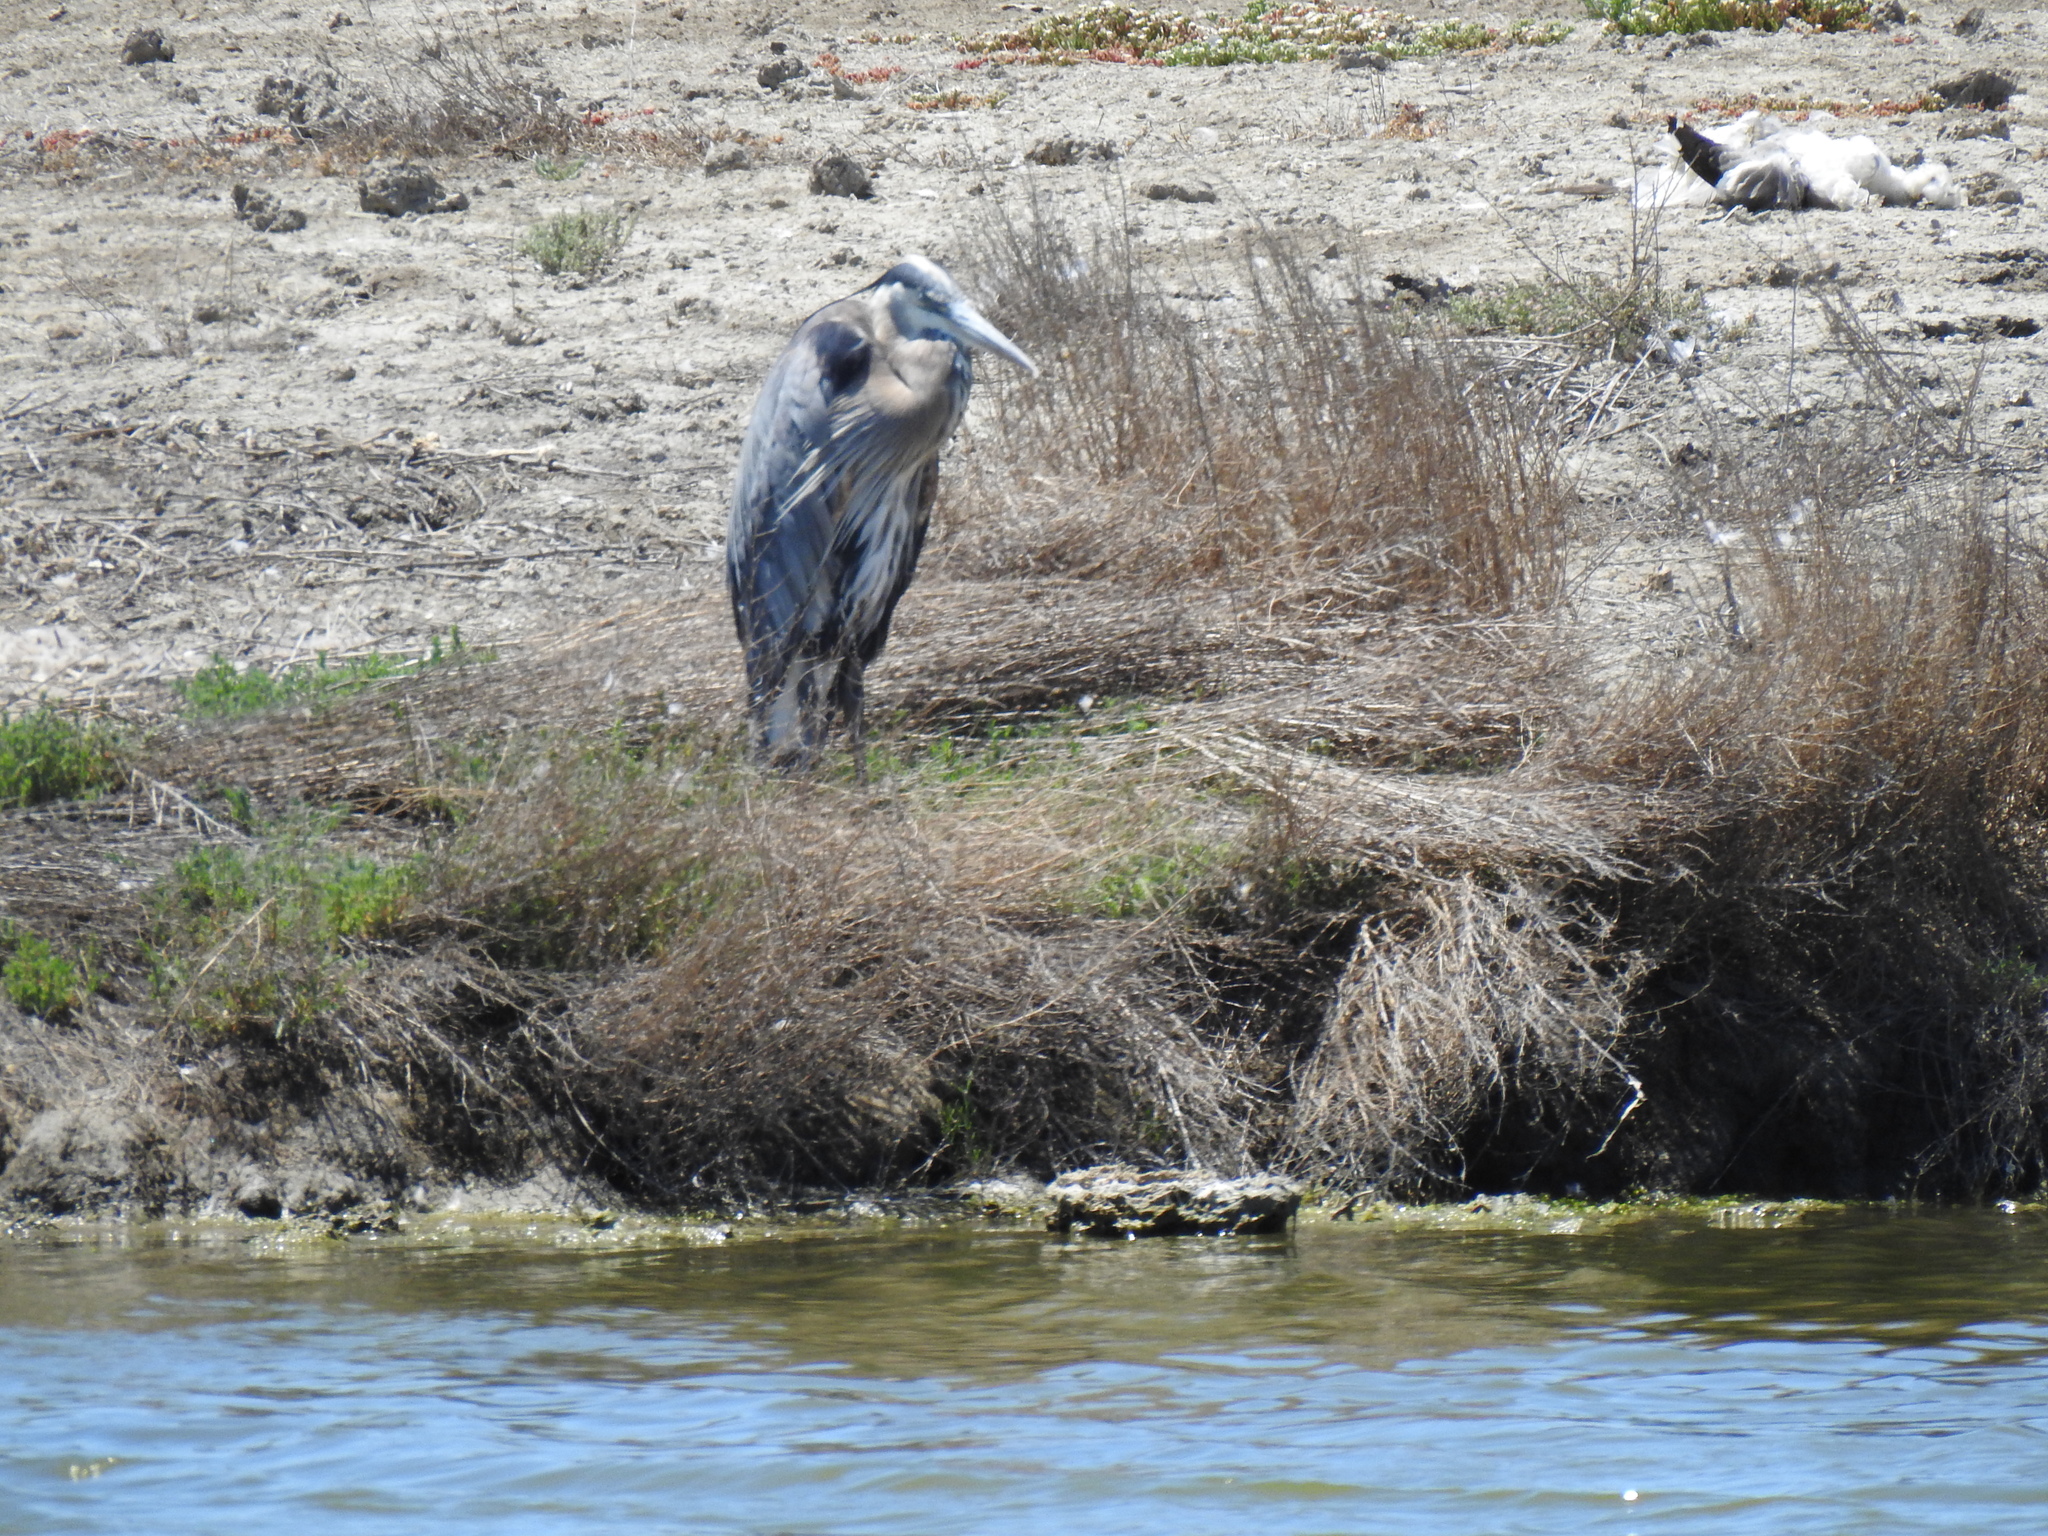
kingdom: Animalia
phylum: Chordata
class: Aves
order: Pelecaniformes
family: Ardeidae
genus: Ardea
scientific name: Ardea herodias
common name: Great blue heron
